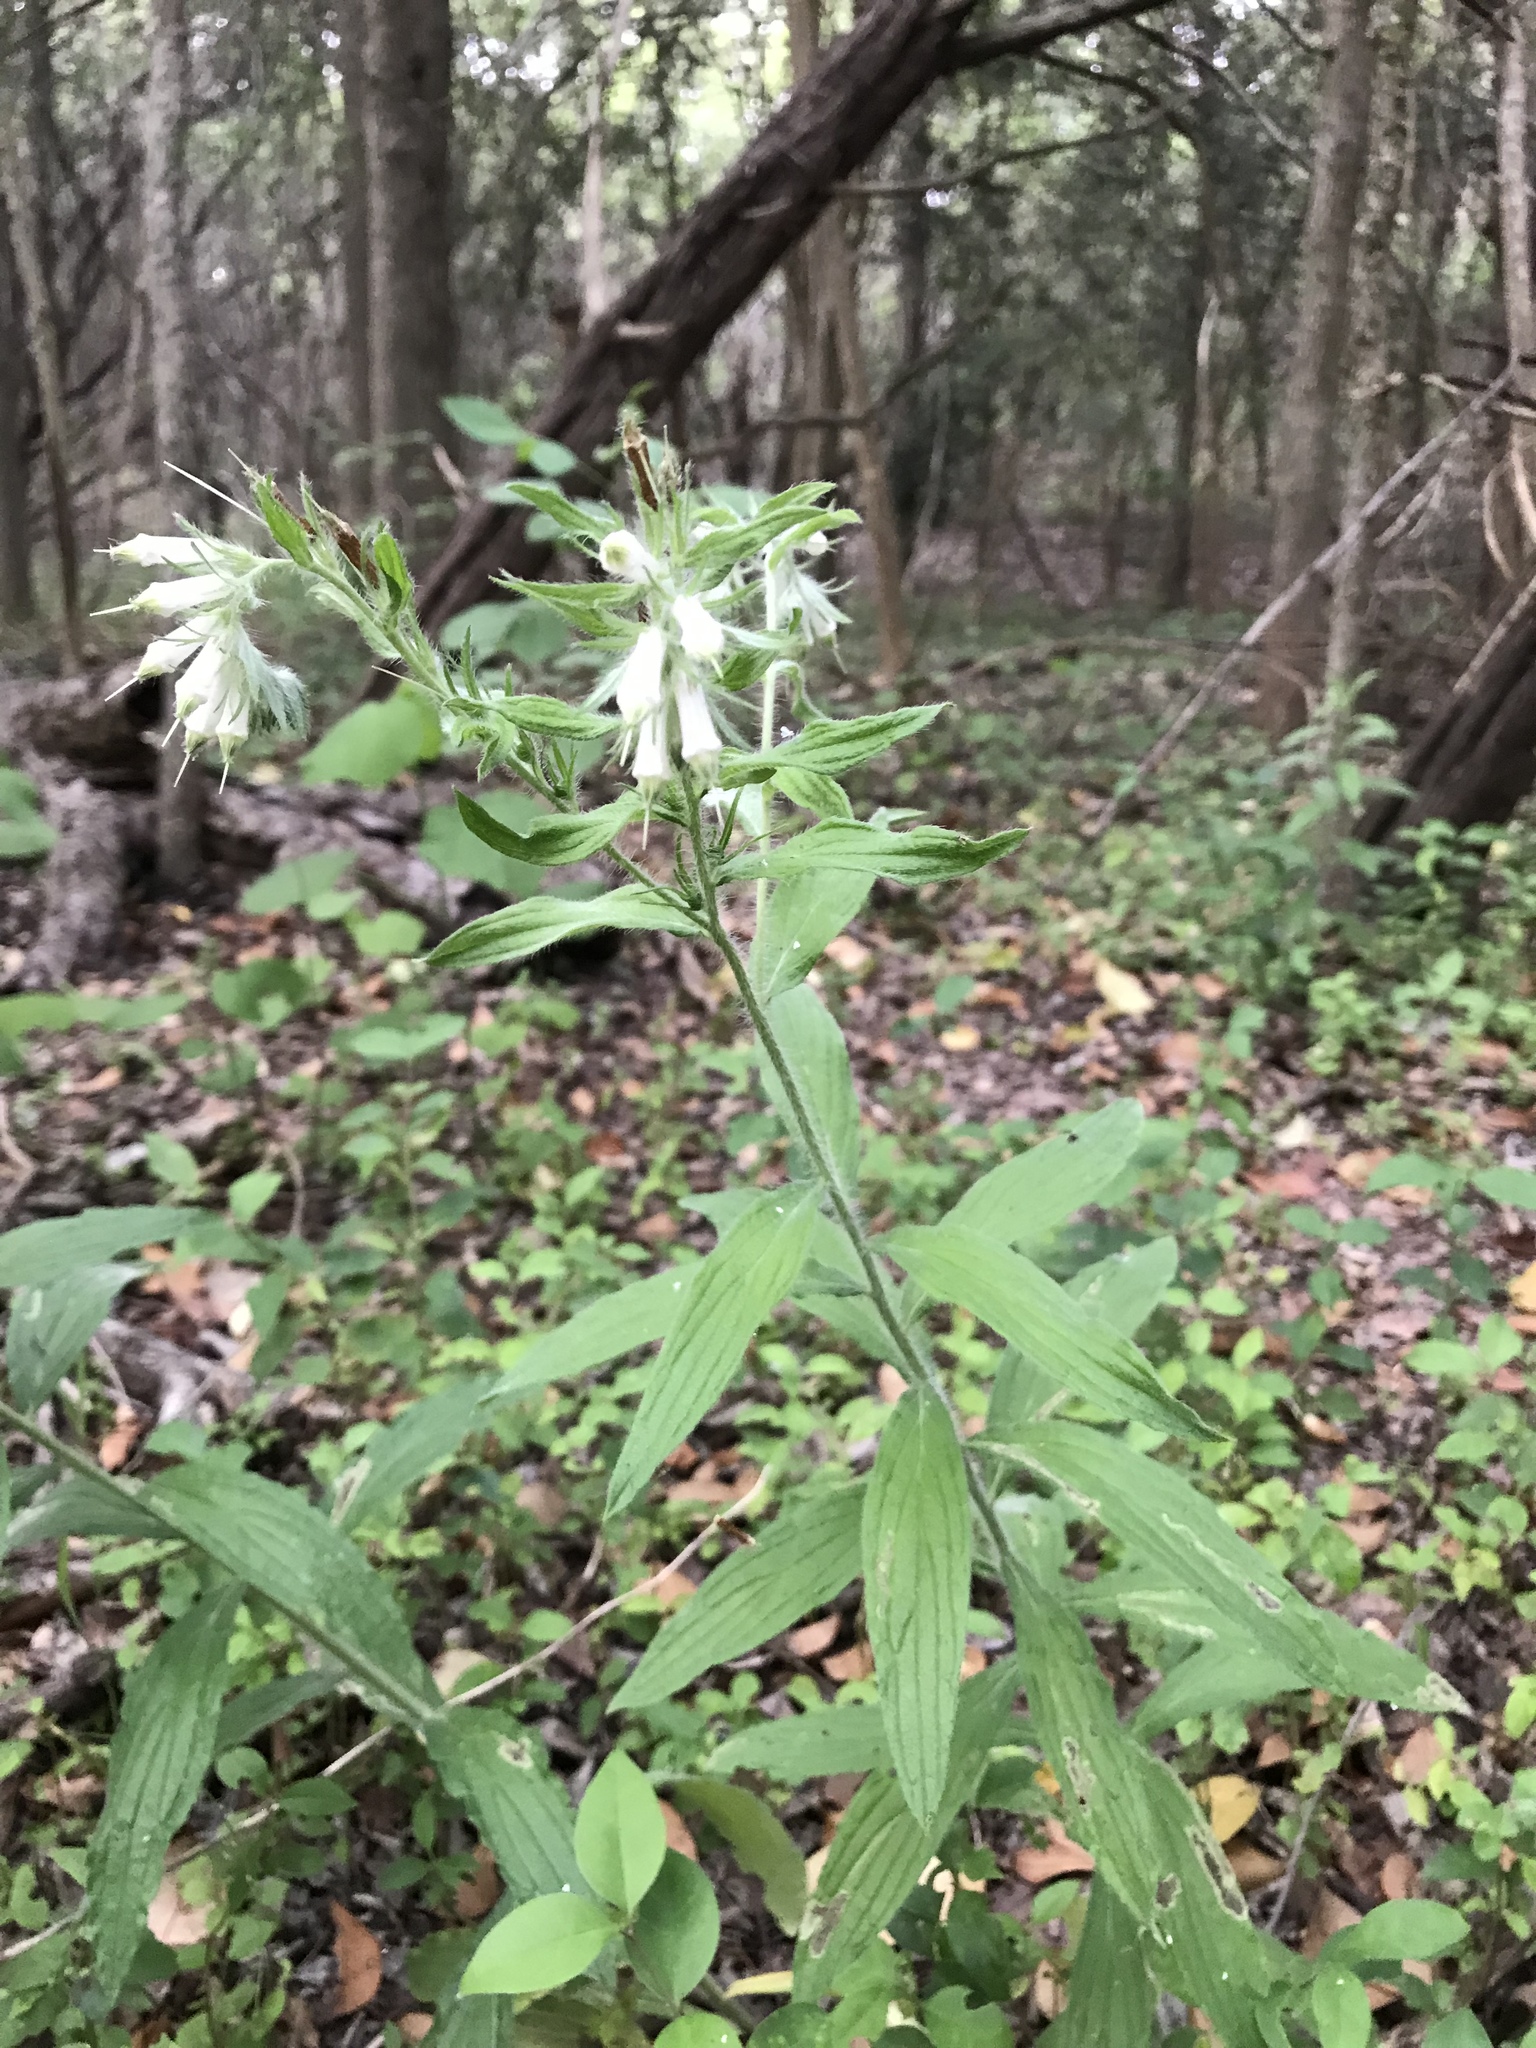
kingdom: Plantae
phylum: Tracheophyta
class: Magnoliopsida
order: Boraginales
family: Boraginaceae
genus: Lithospermum
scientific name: Lithospermum caroliniense
